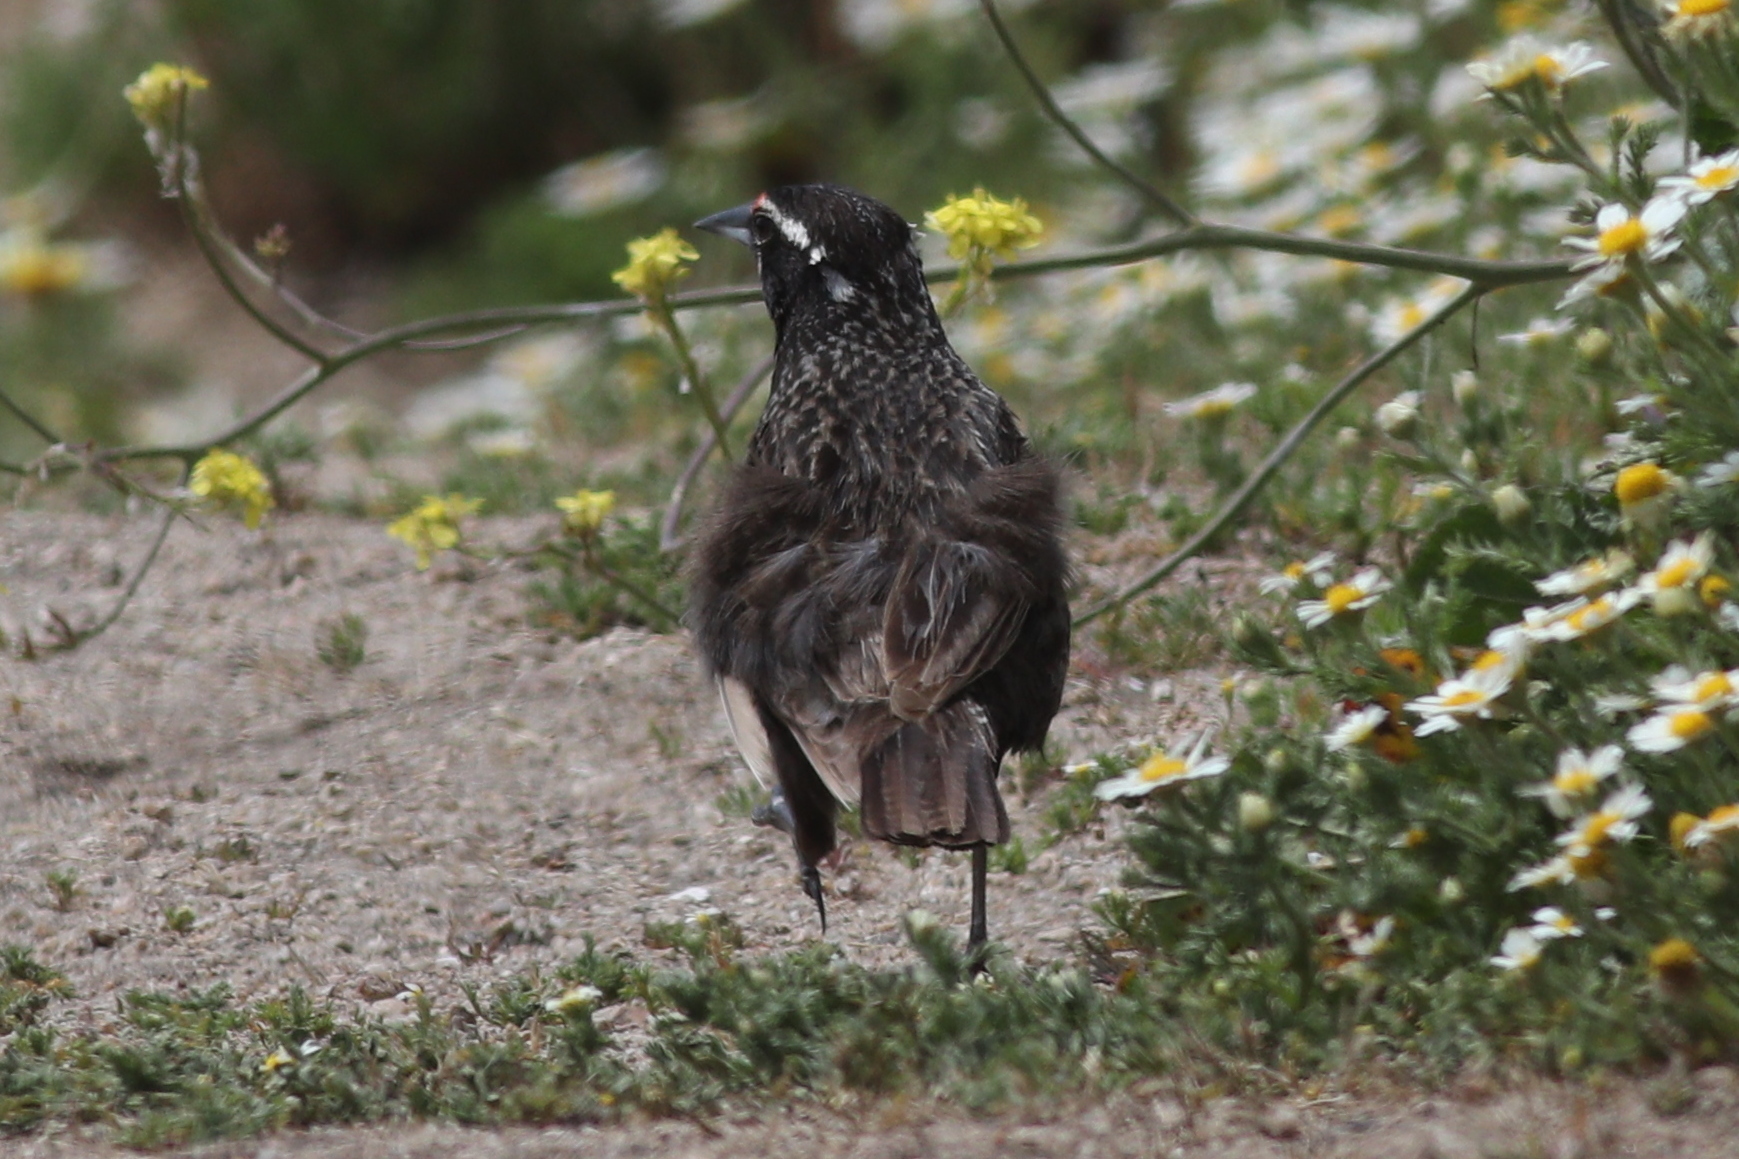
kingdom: Animalia
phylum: Chordata
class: Aves
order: Passeriformes
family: Icteridae
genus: Sturnella
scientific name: Sturnella loyca
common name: Long-tailed meadowlark
